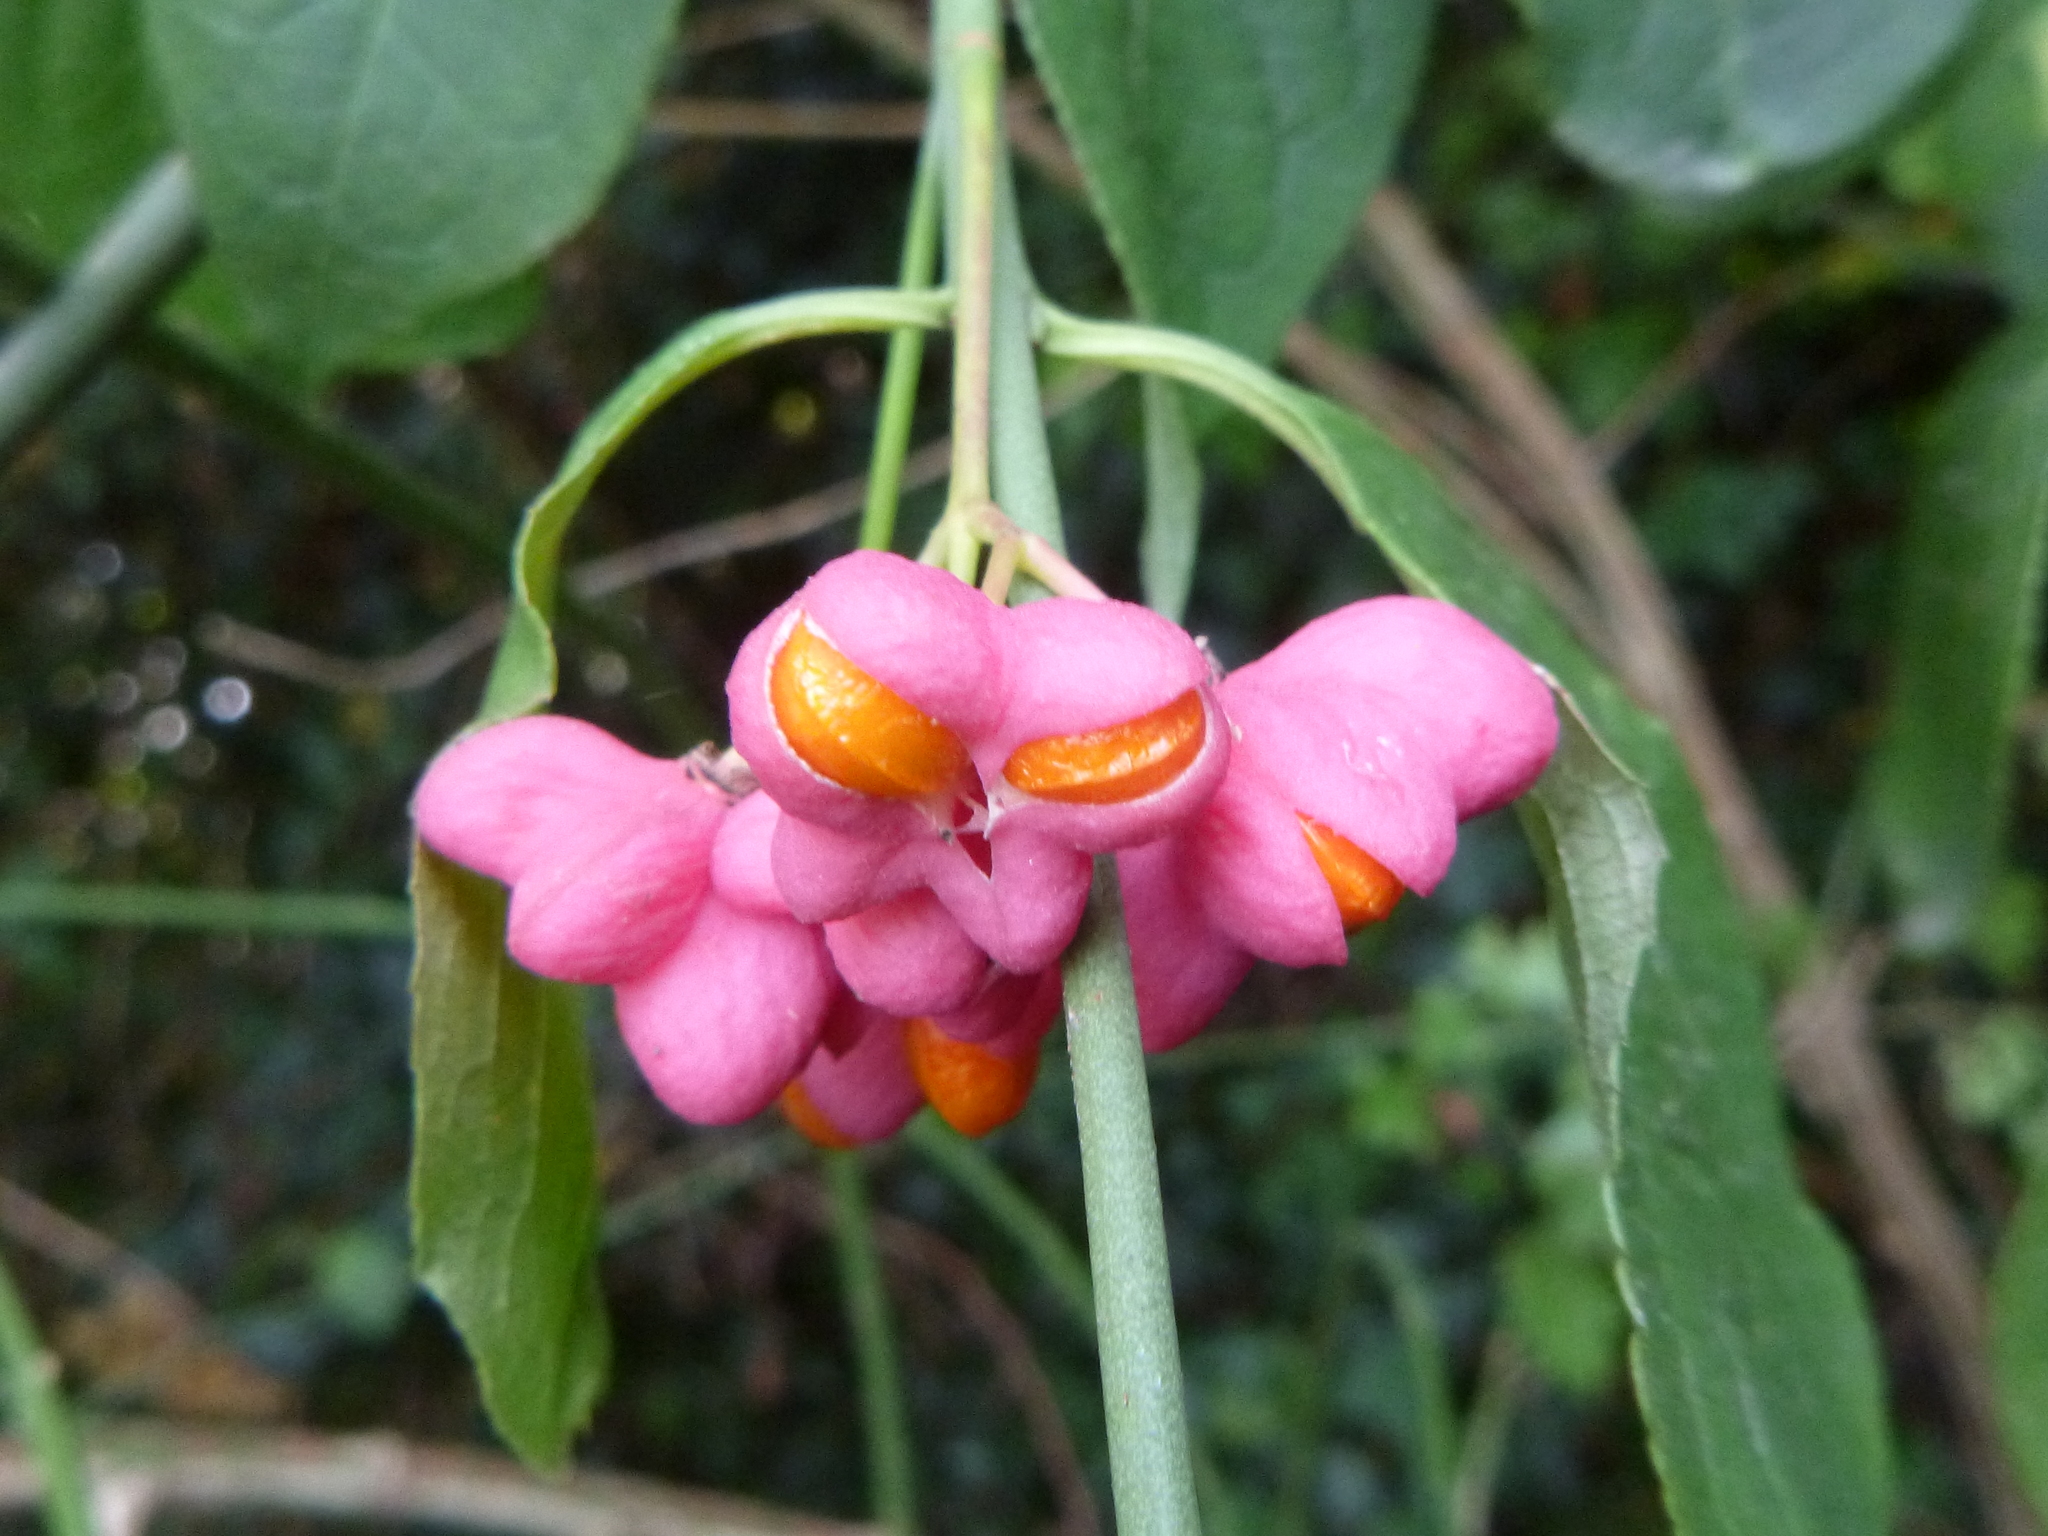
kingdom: Plantae
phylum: Tracheophyta
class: Magnoliopsida
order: Celastrales
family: Celastraceae
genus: Euonymus
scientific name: Euonymus europaeus
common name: Spindle
